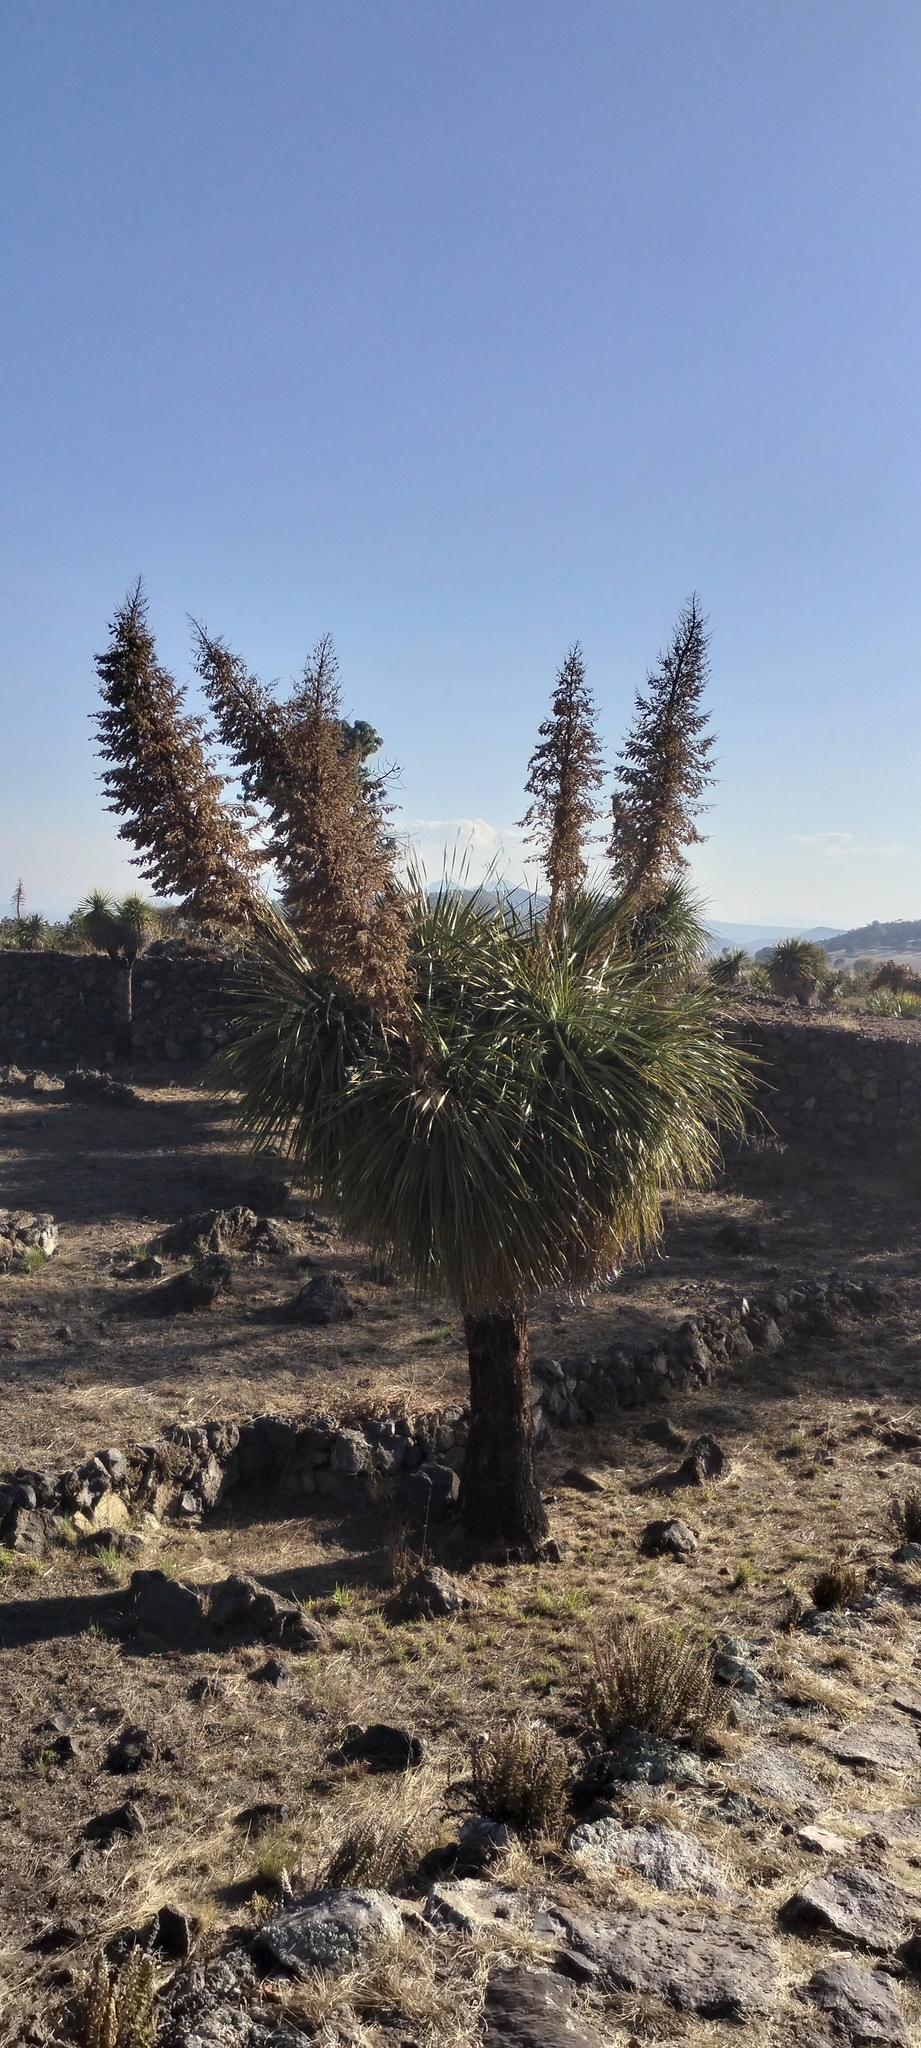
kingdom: Plantae
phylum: Tracheophyta
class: Liliopsida
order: Asparagales
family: Asparagaceae
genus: Nolina
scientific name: Nolina parviflora
